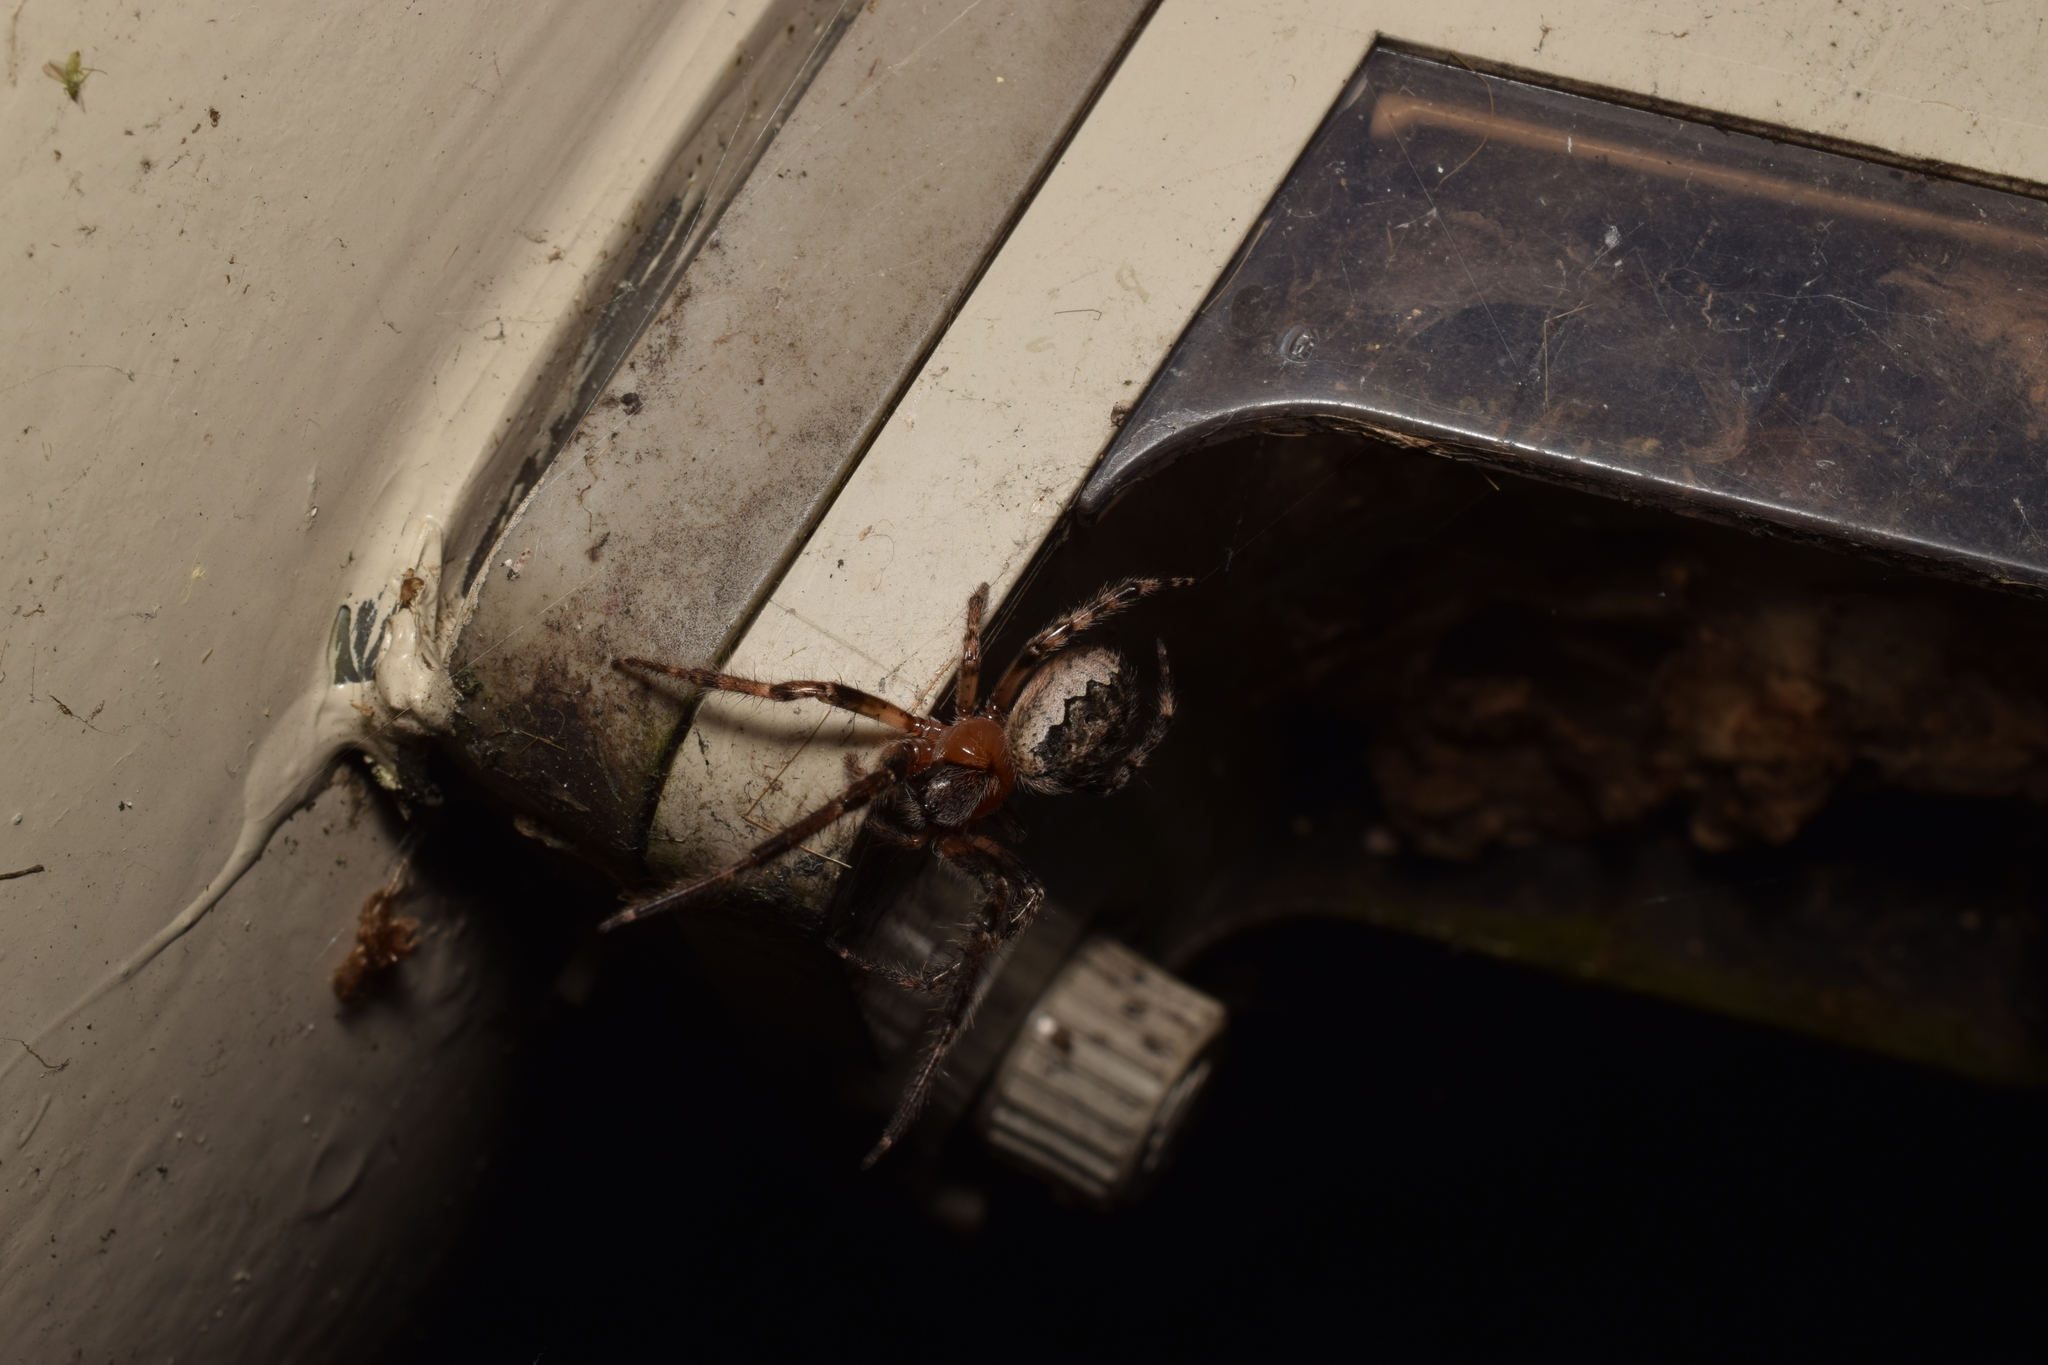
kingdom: Animalia
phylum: Arthropoda
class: Arachnida
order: Araneae
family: Araneidae
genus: Yaginumia
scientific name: Yaginumia sia
